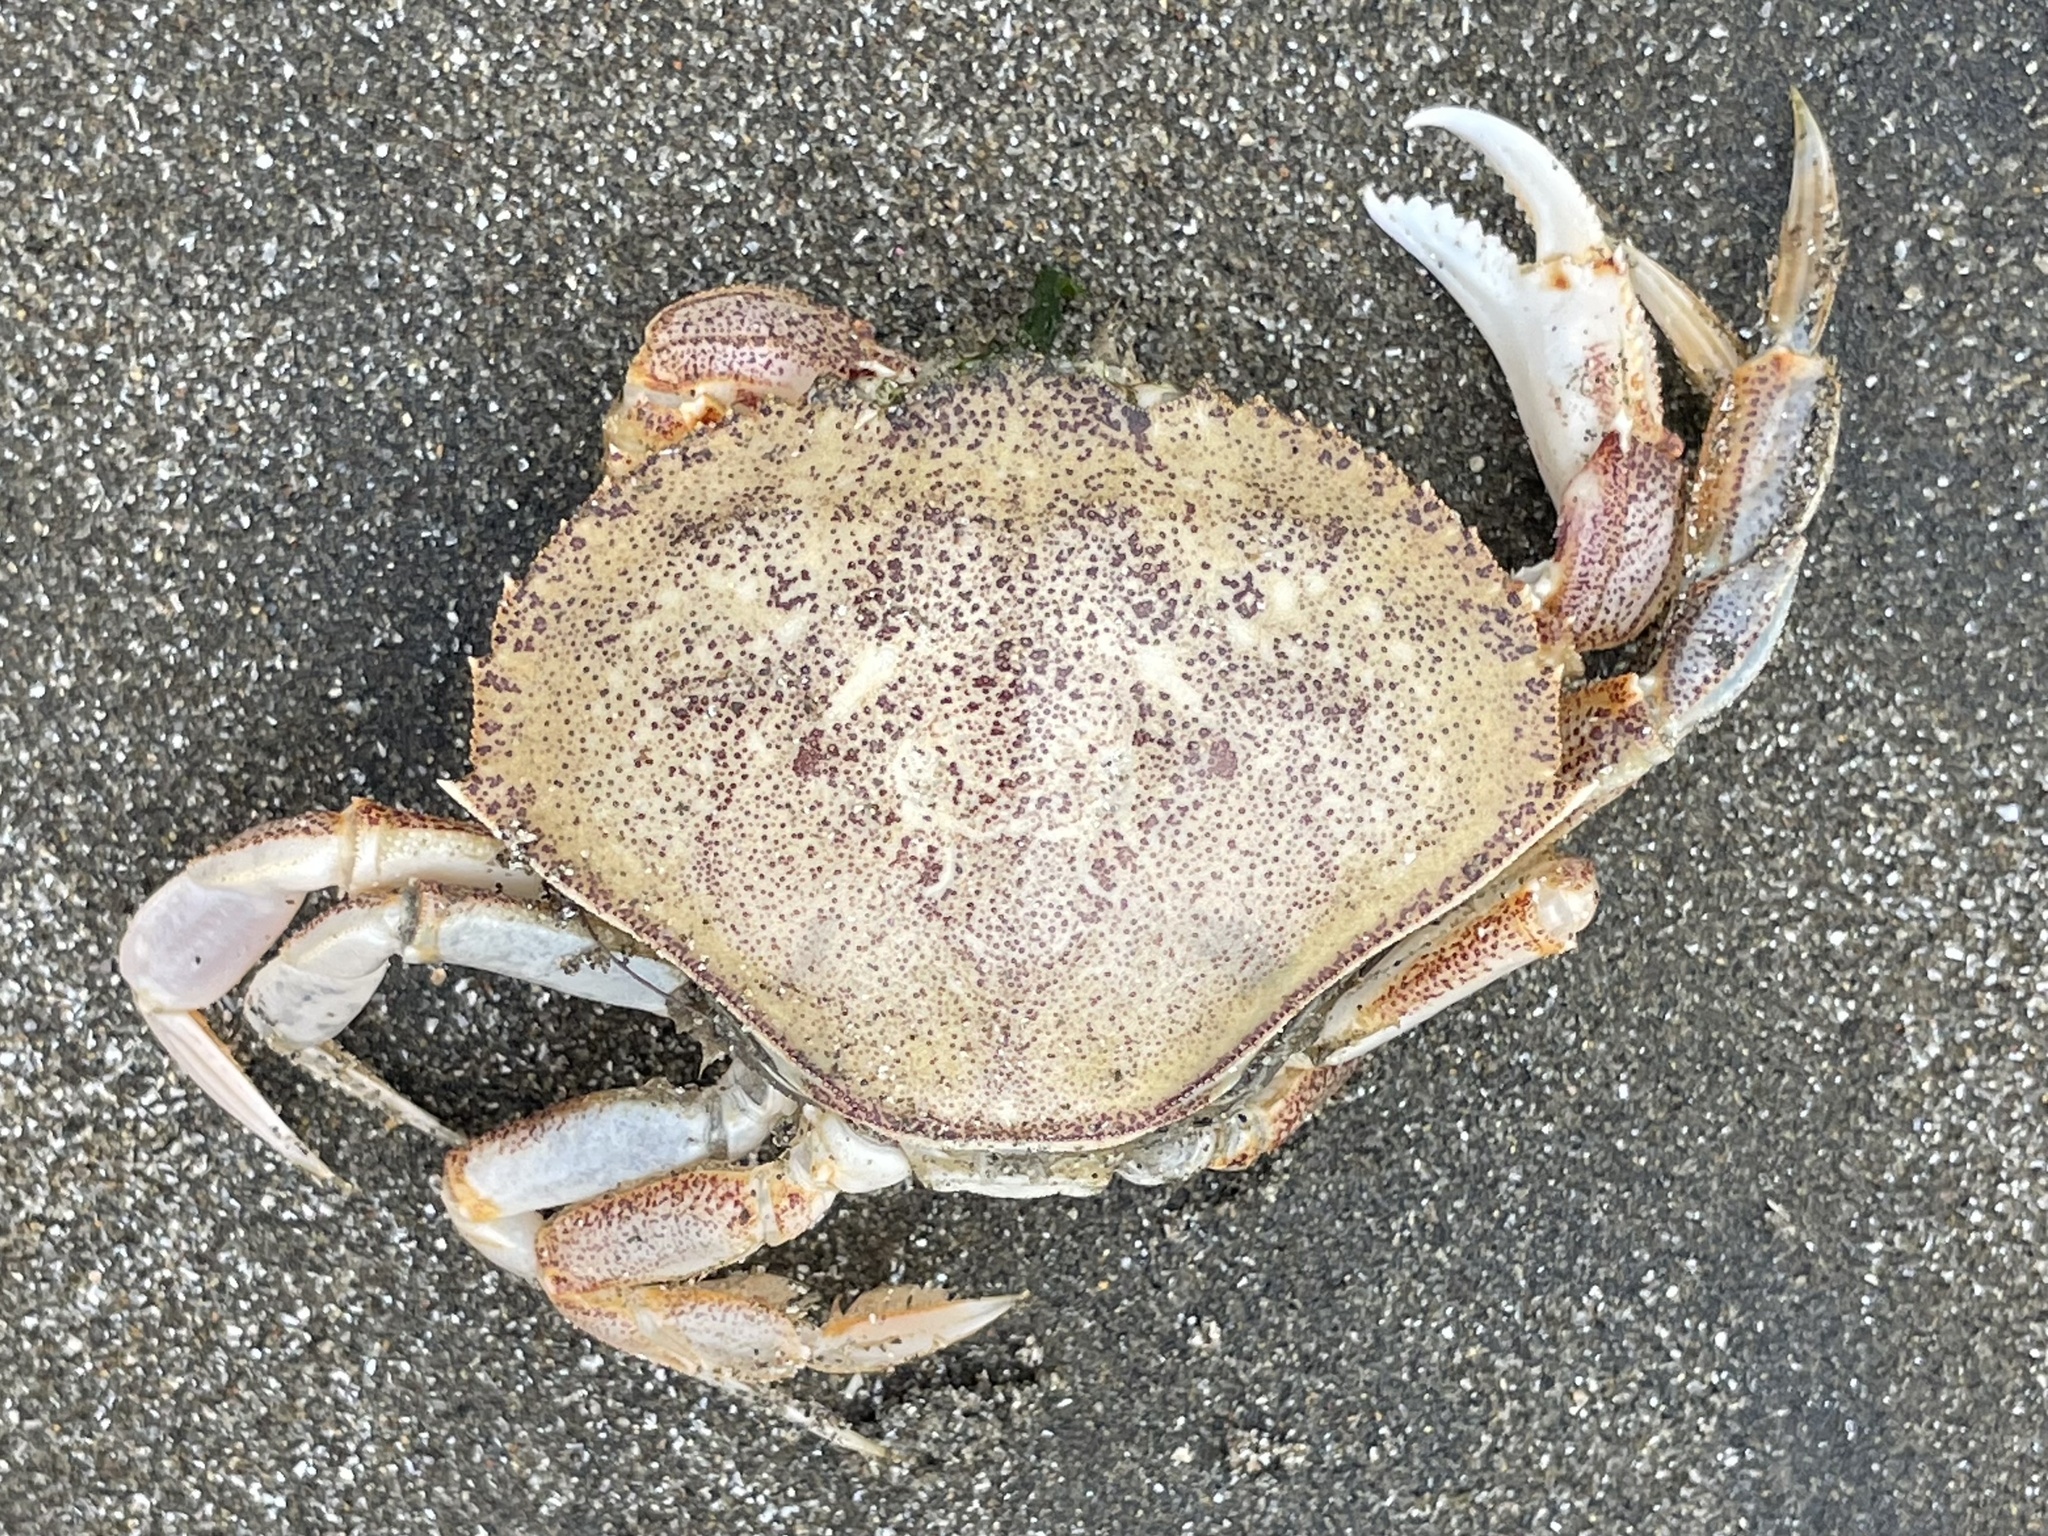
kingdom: Animalia
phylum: Arthropoda
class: Malacostraca
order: Decapoda
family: Cancridae
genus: Metacarcinus
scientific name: Metacarcinus magister
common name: Californian crab
